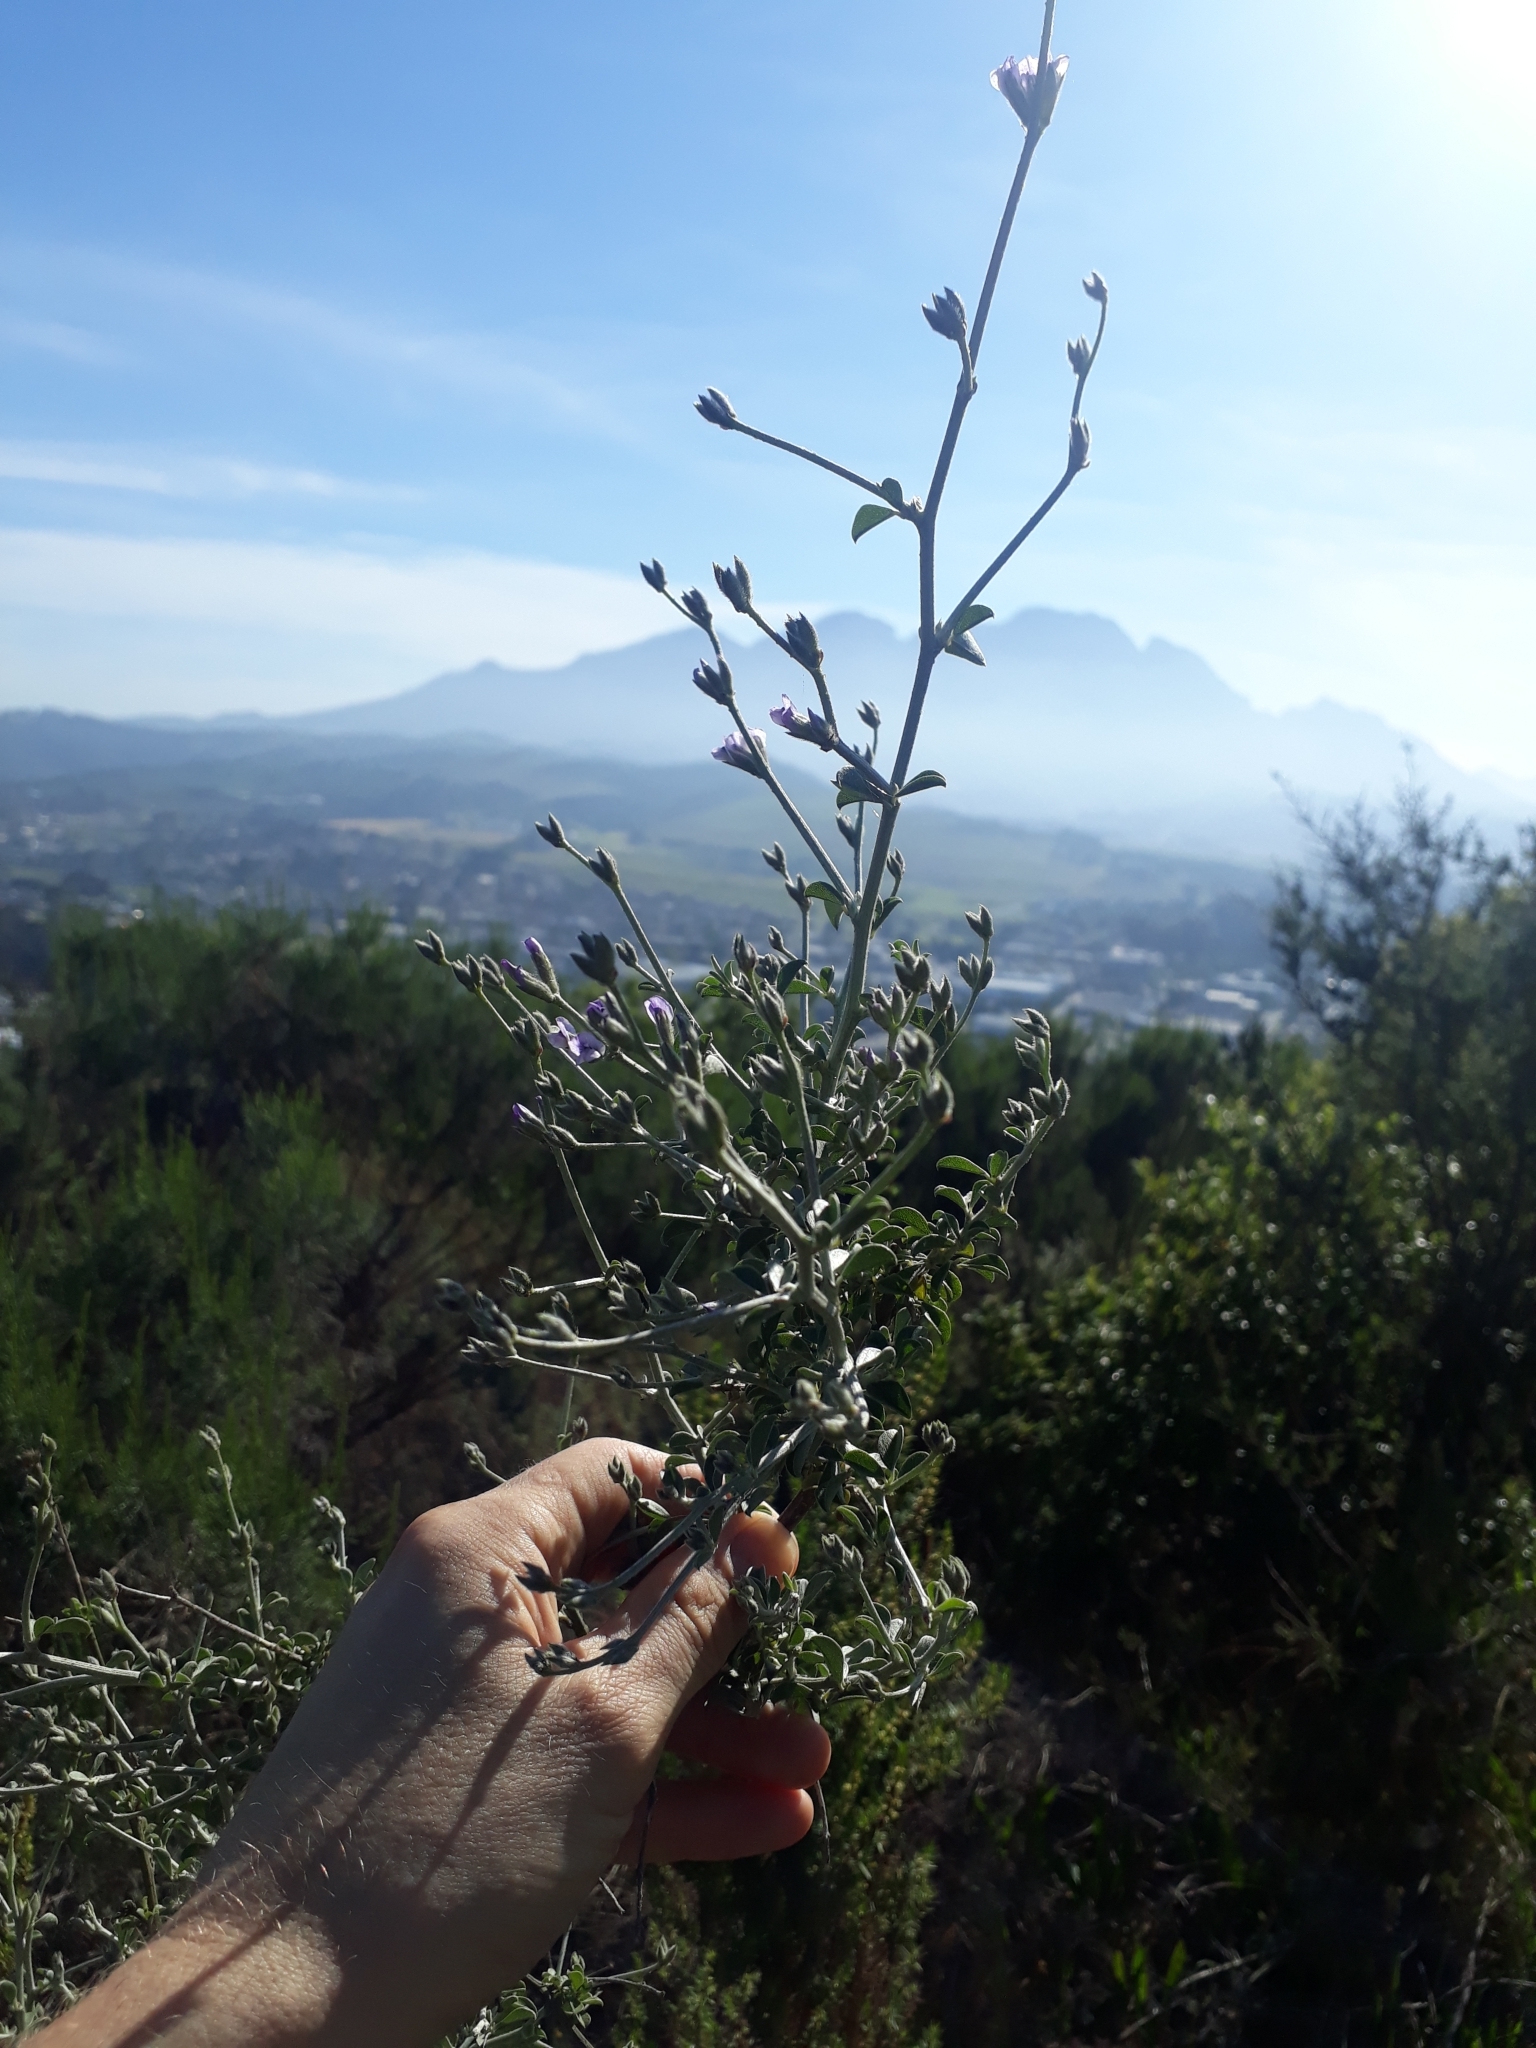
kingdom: Plantae
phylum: Tracheophyta
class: Magnoliopsida
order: Fabales
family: Fabaceae
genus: Psoralea
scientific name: Psoralea hirta
